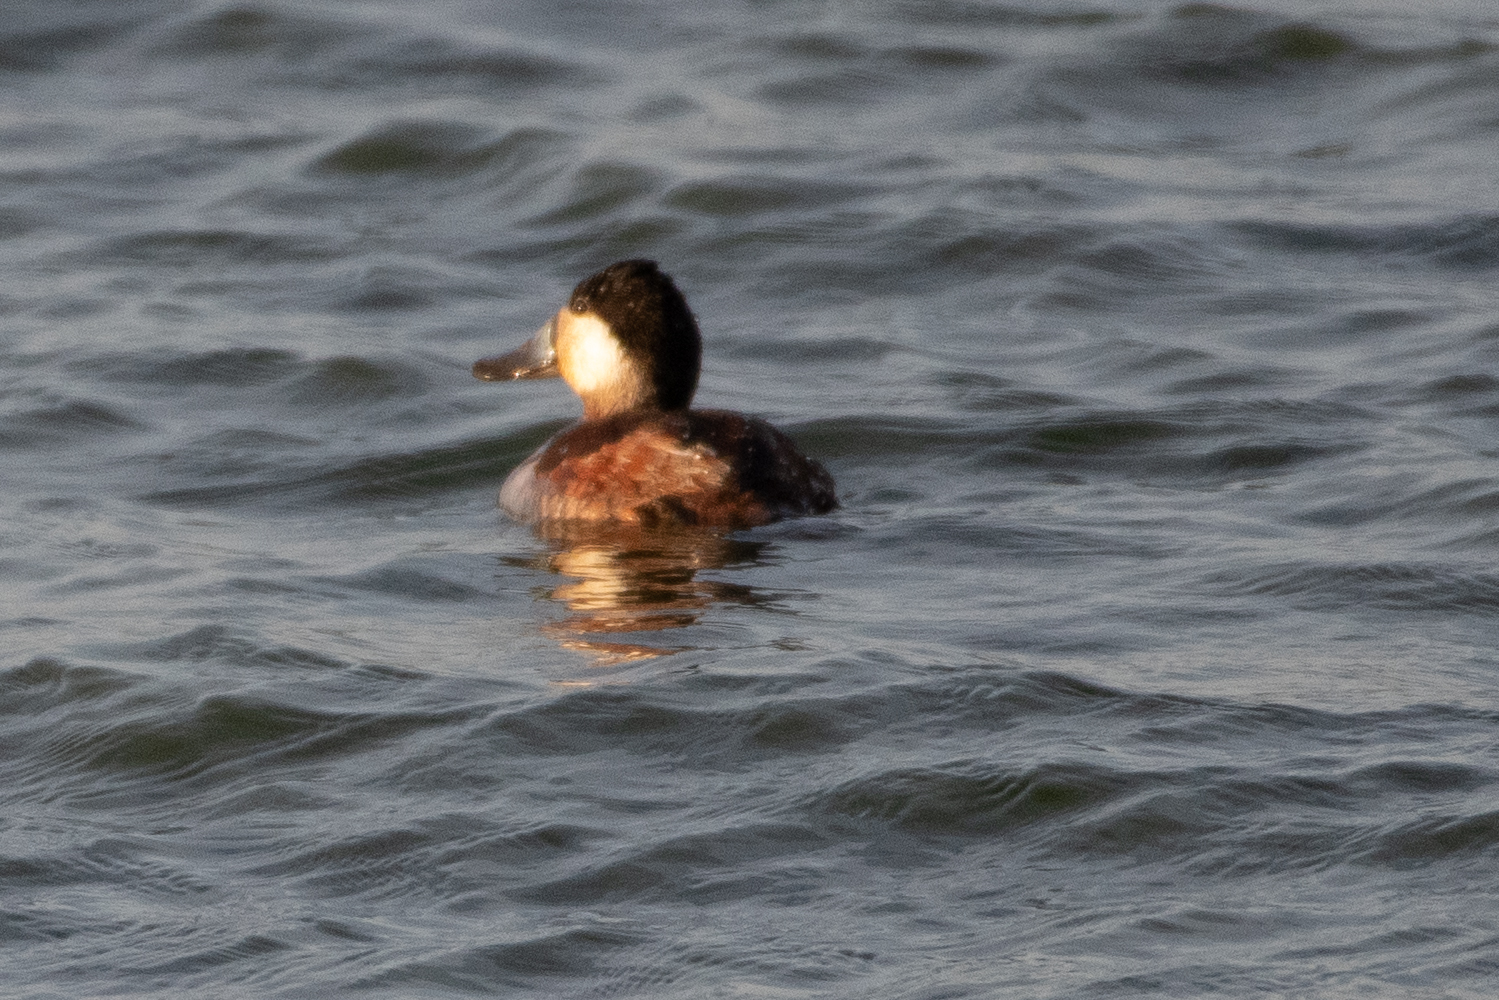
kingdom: Animalia
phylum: Chordata
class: Aves
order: Anseriformes
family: Anatidae
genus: Oxyura
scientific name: Oxyura jamaicensis
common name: Ruddy duck
